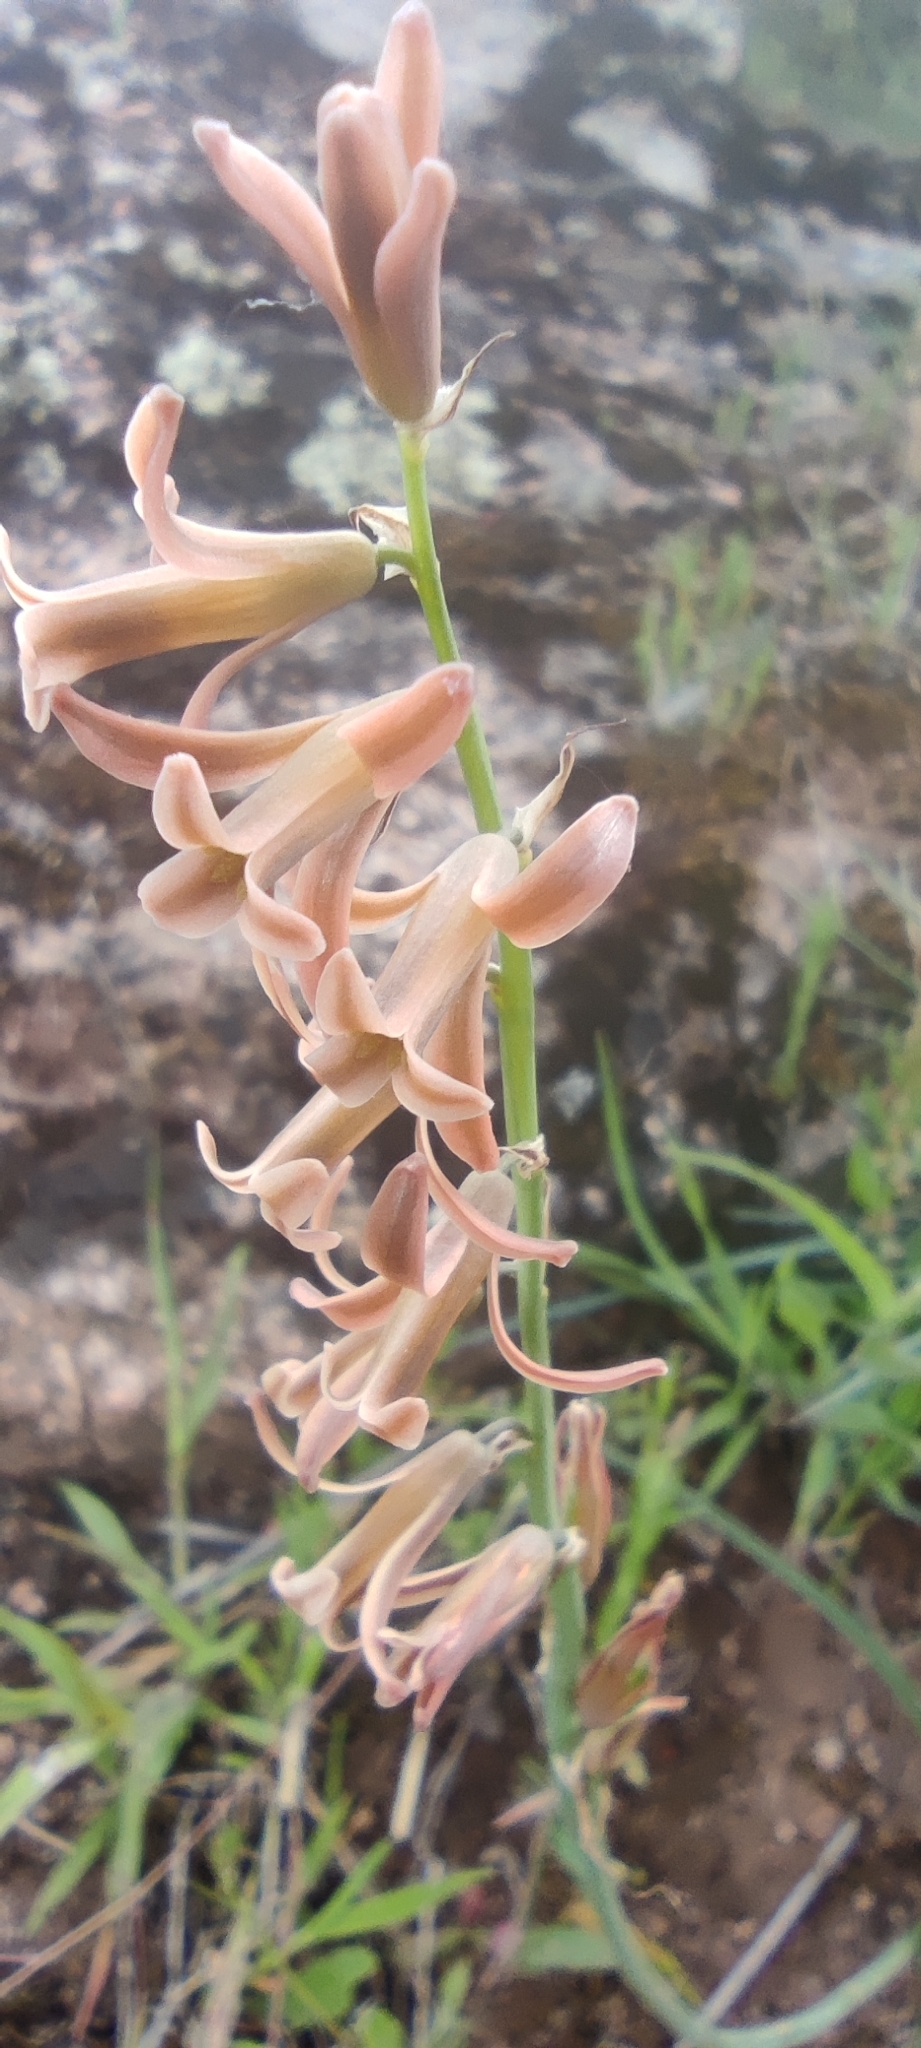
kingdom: Plantae
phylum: Tracheophyta
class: Liliopsida
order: Asparagales
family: Asparagaceae
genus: Dipcadi
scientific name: Dipcadi serotinum
